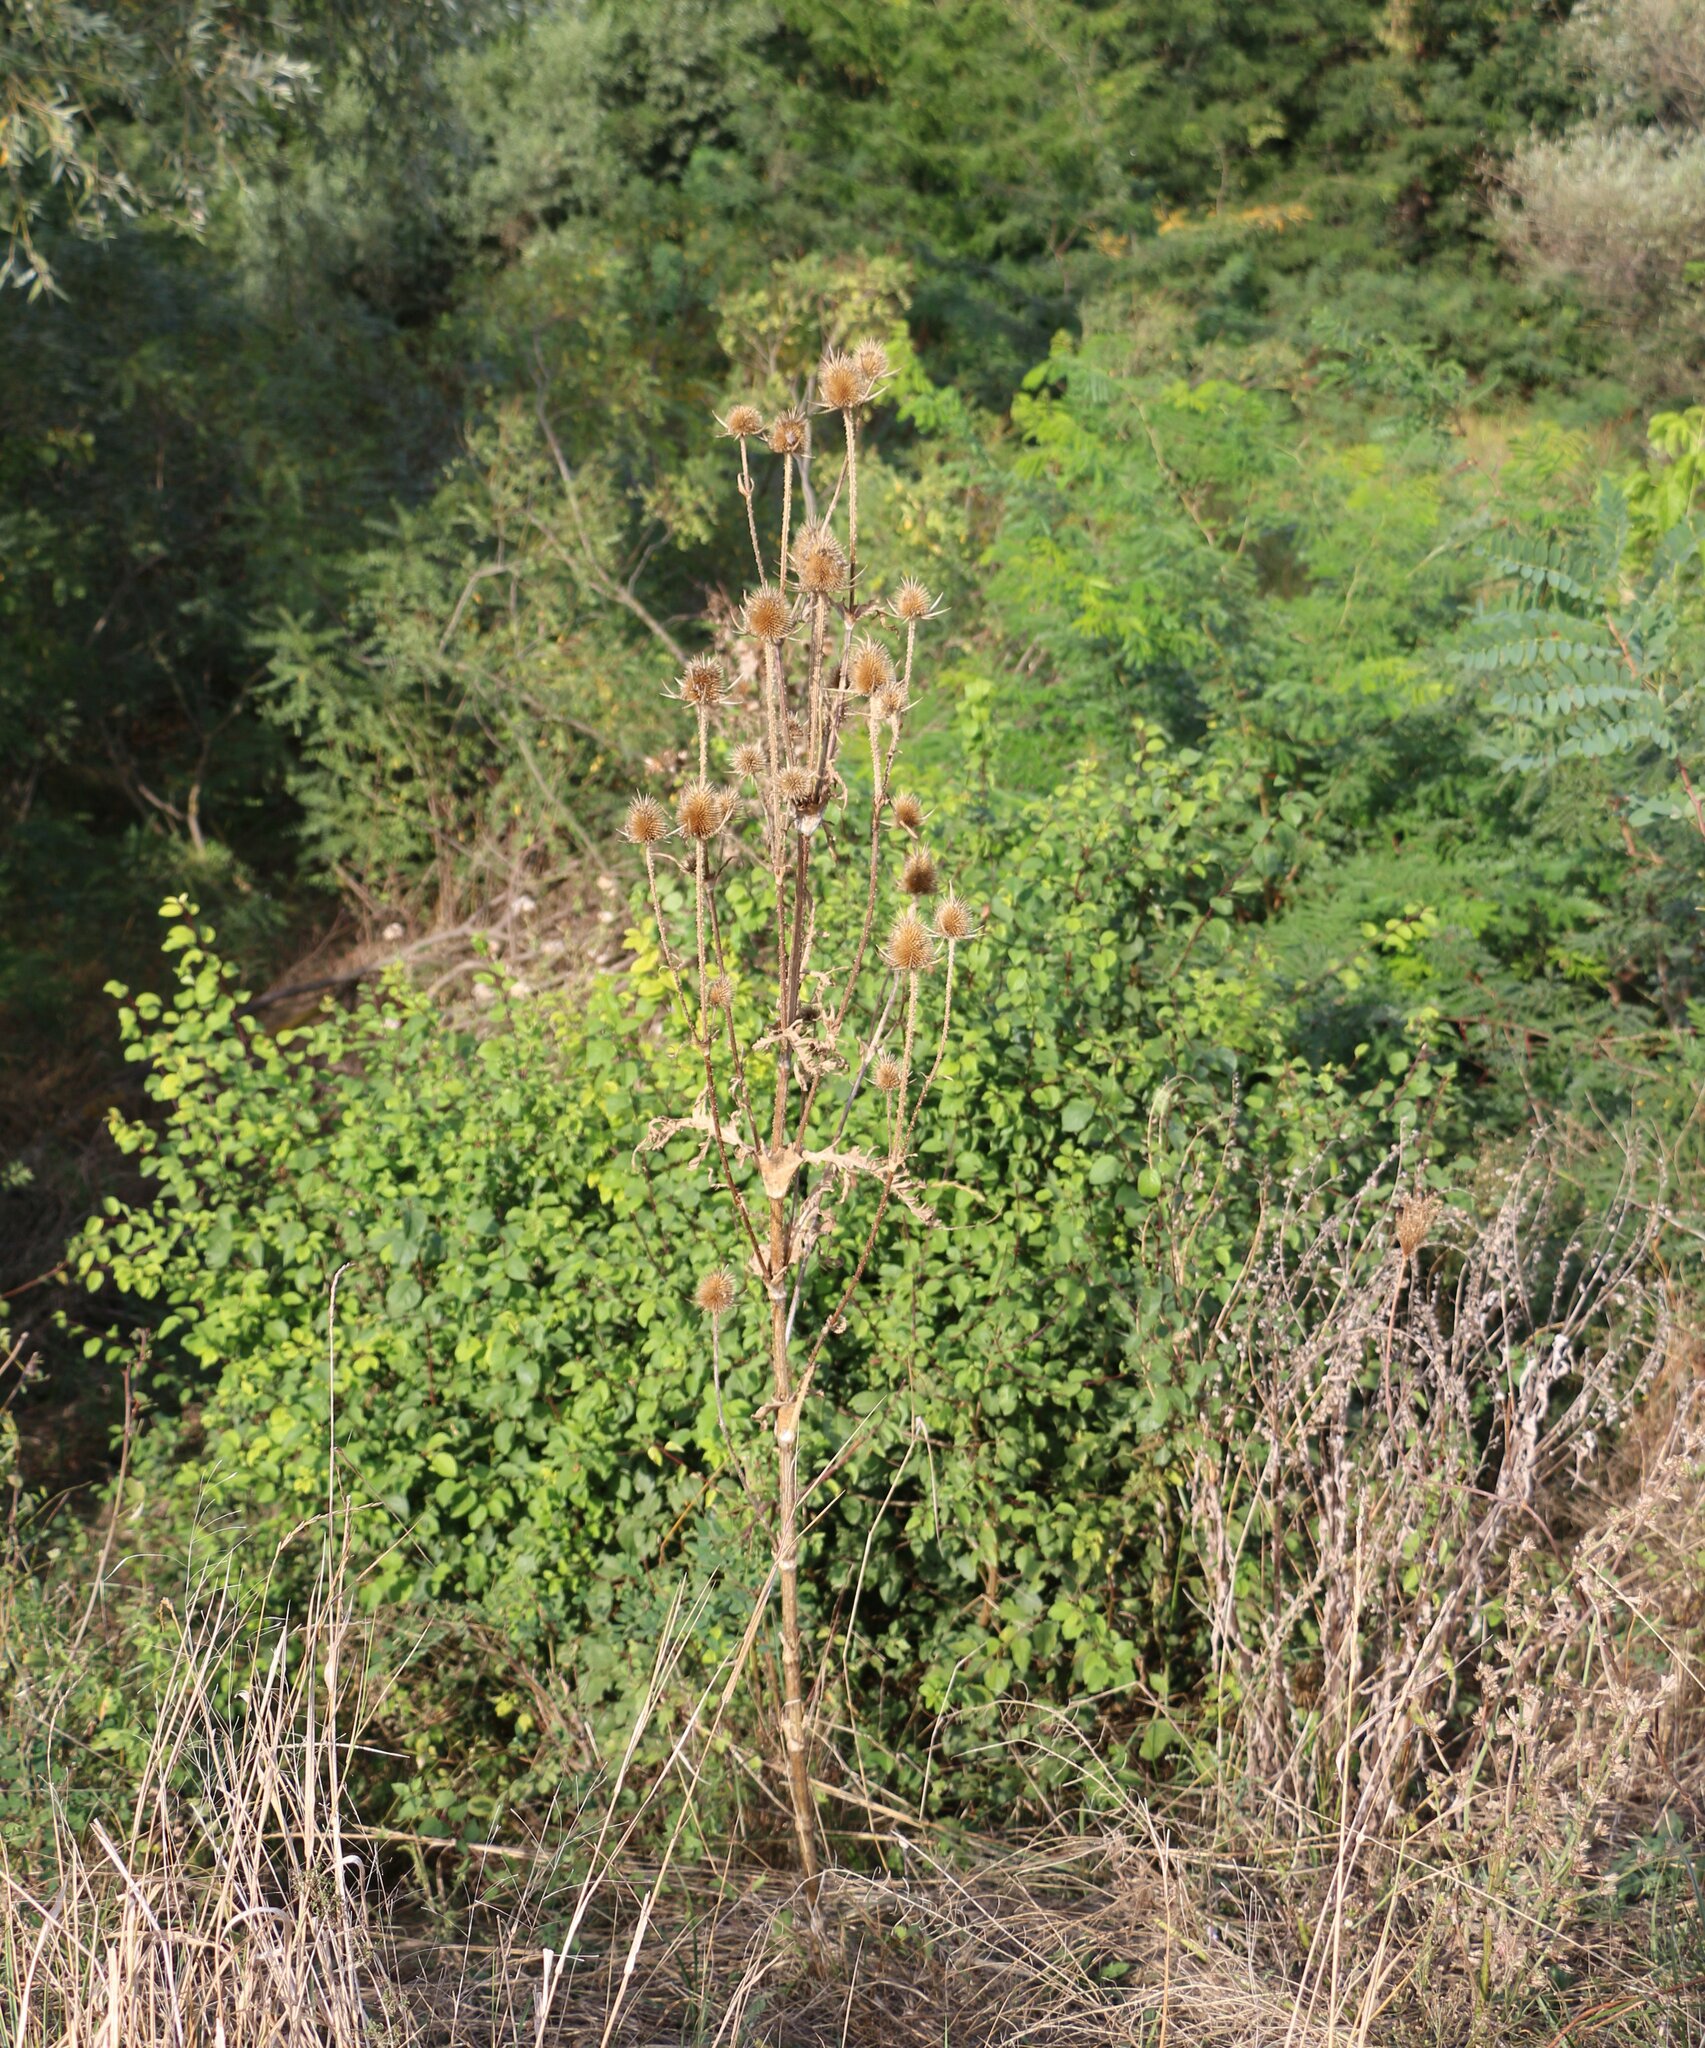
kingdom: Plantae
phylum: Tracheophyta
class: Magnoliopsida
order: Dipsacales
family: Caprifoliaceae
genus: Dipsacus
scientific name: Dipsacus laciniatus
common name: Cut-leaved teasel
